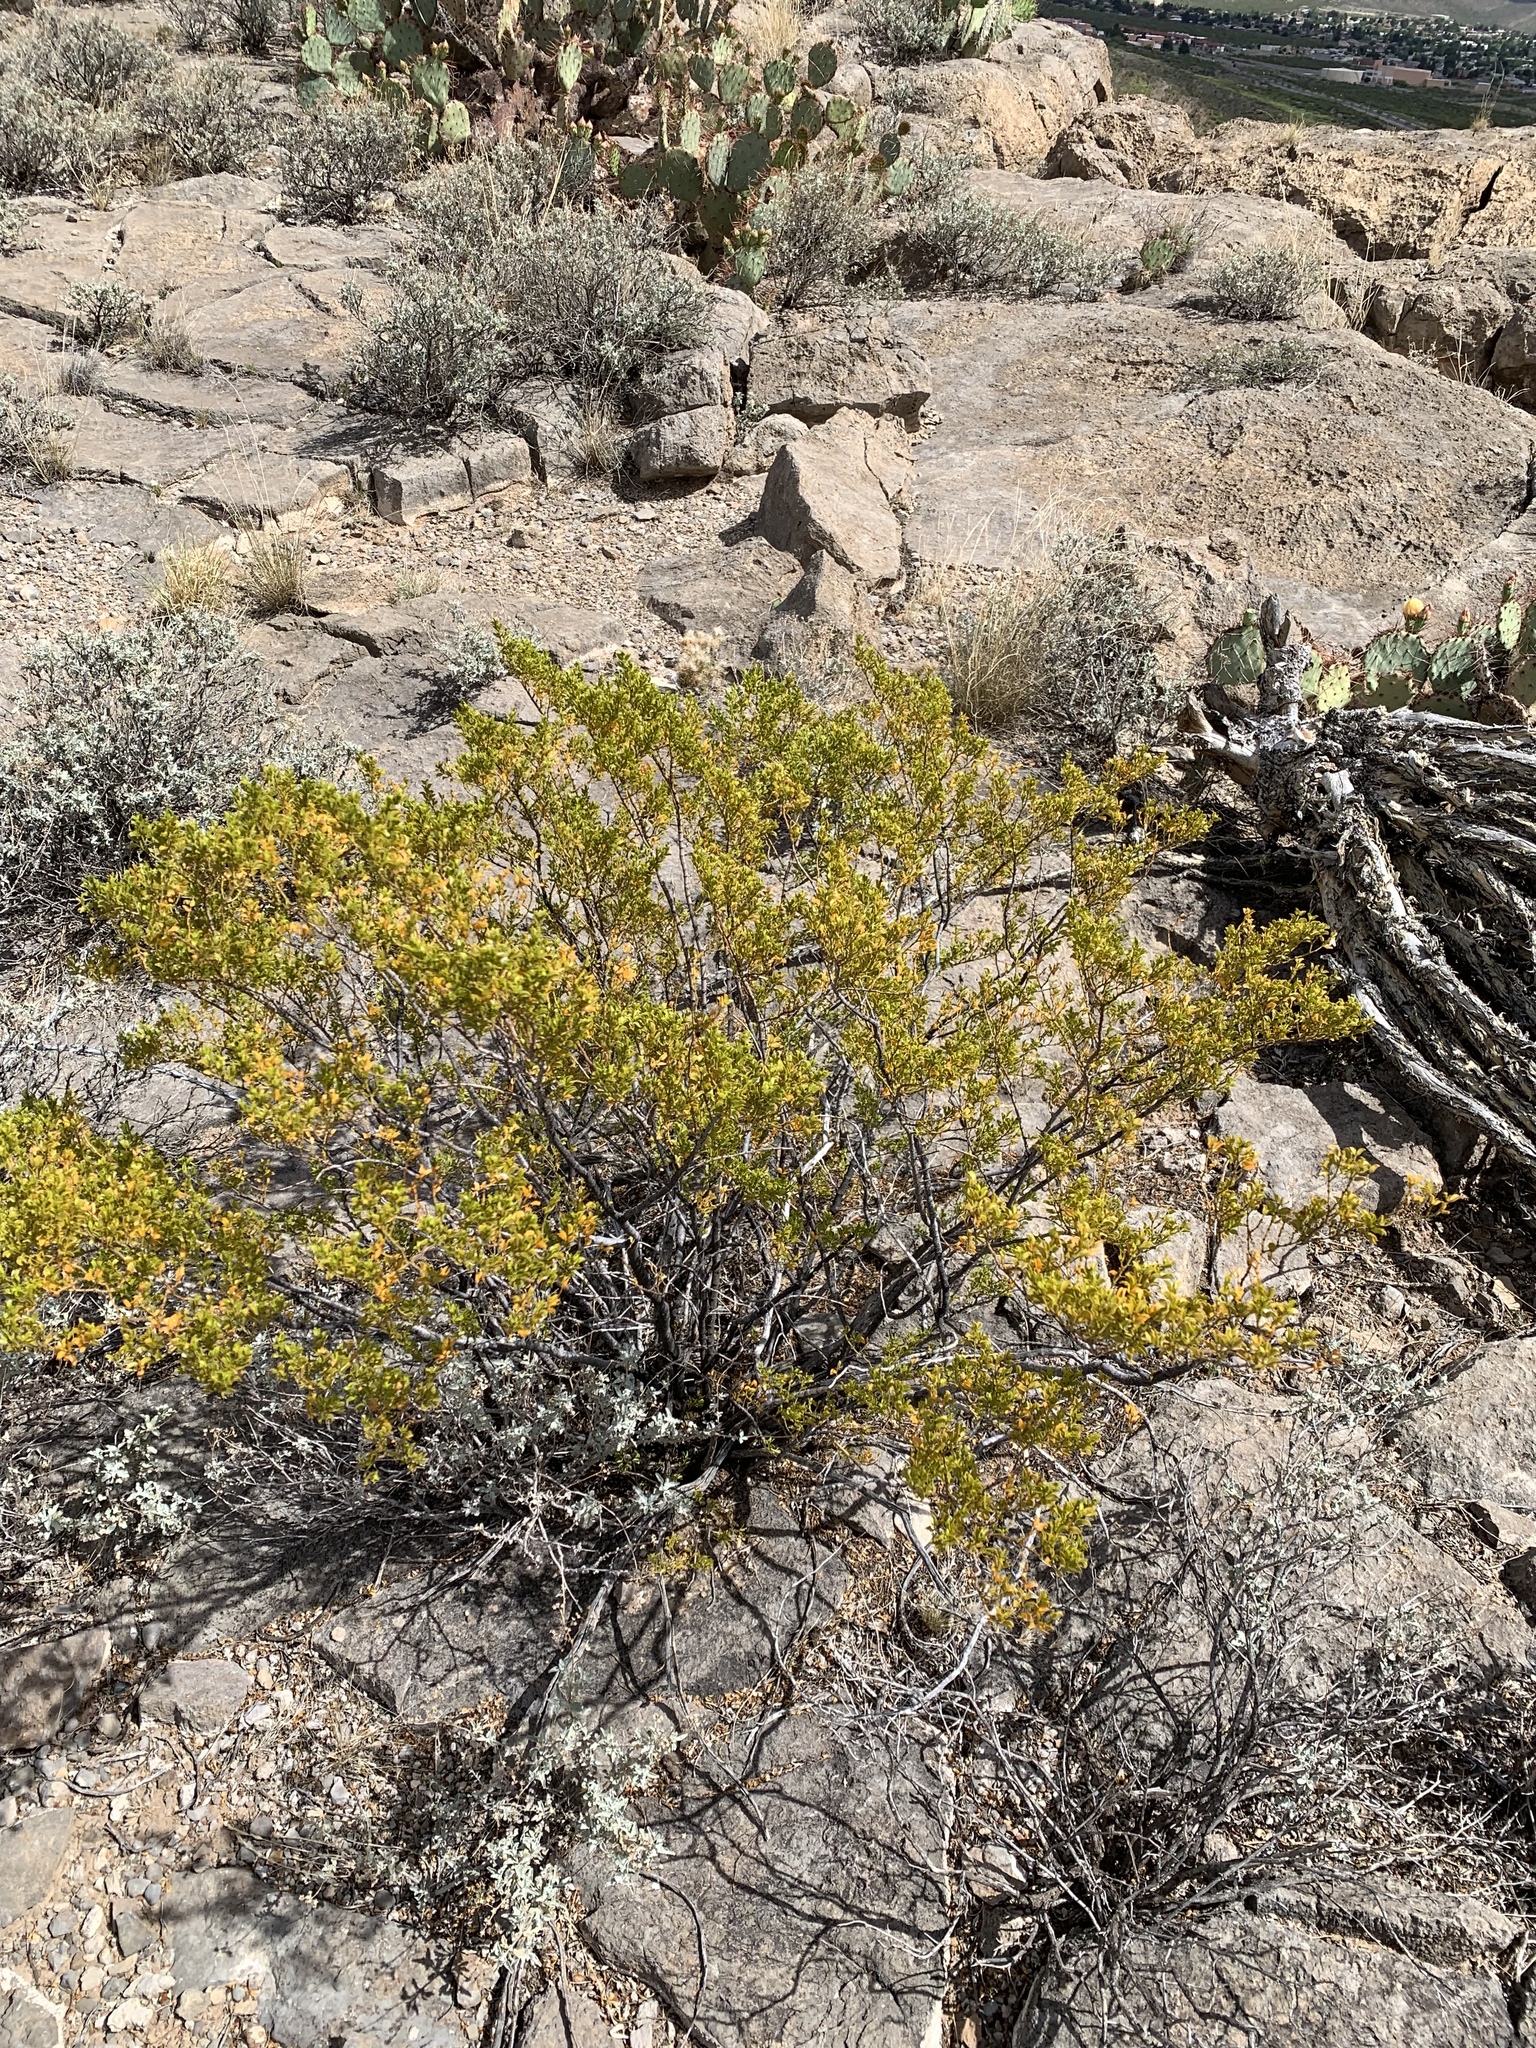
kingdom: Plantae
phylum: Tracheophyta
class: Magnoliopsida
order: Zygophyllales
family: Zygophyllaceae
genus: Larrea
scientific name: Larrea tridentata
